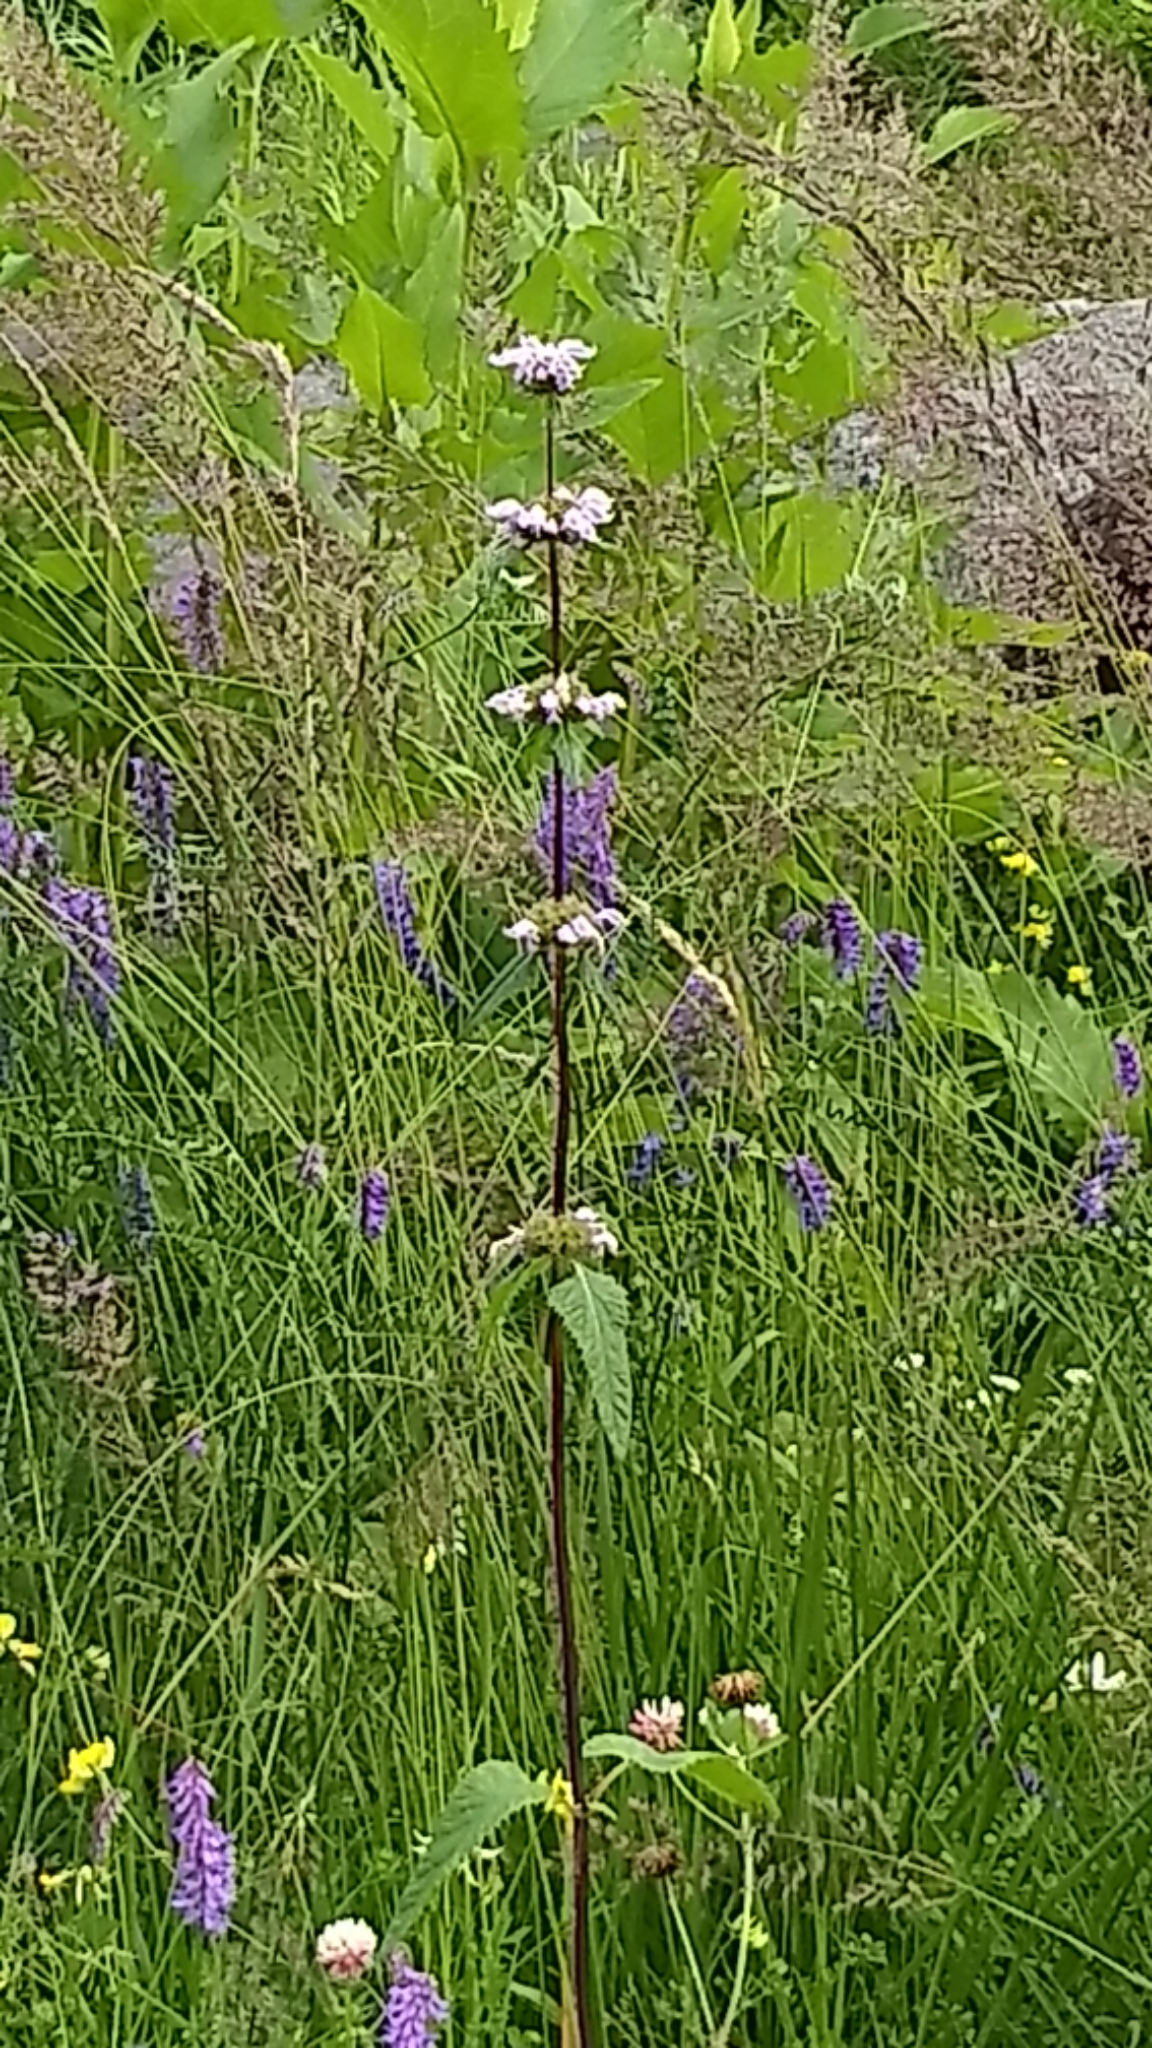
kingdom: Plantae
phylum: Tracheophyta
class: Magnoliopsida
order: Lamiales
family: Lamiaceae
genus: Phlomoides
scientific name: Phlomoides tuberosa
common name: Tuberous jerusalem sage
